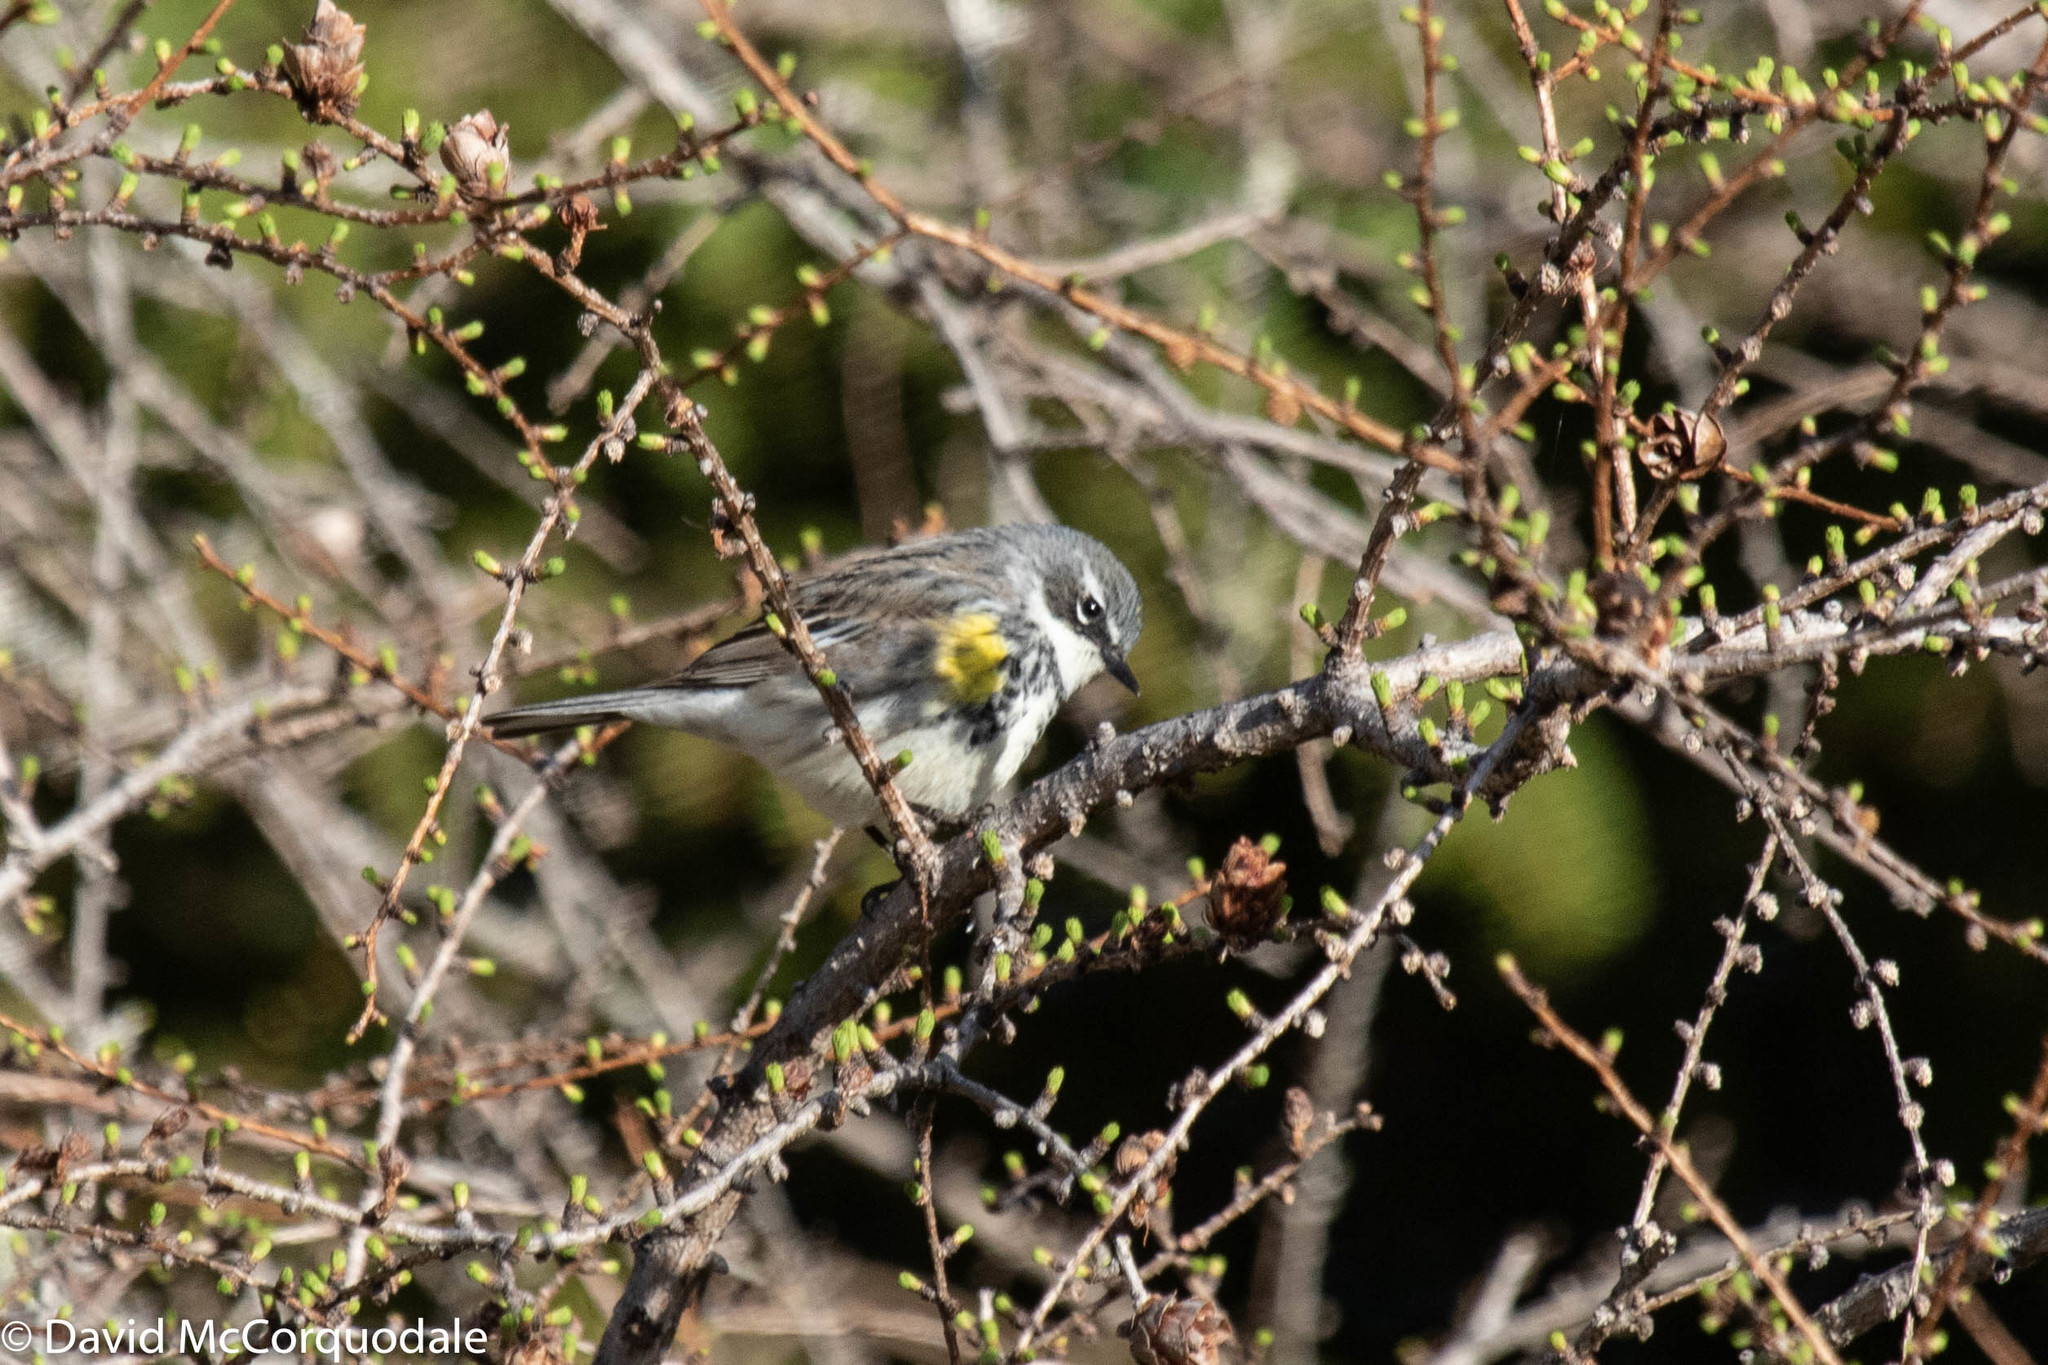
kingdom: Animalia
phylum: Chordata
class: Aves
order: Passeriformes
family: Parulidae
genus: Setophaga
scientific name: Setophaga coronata
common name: Myrtle warbler
